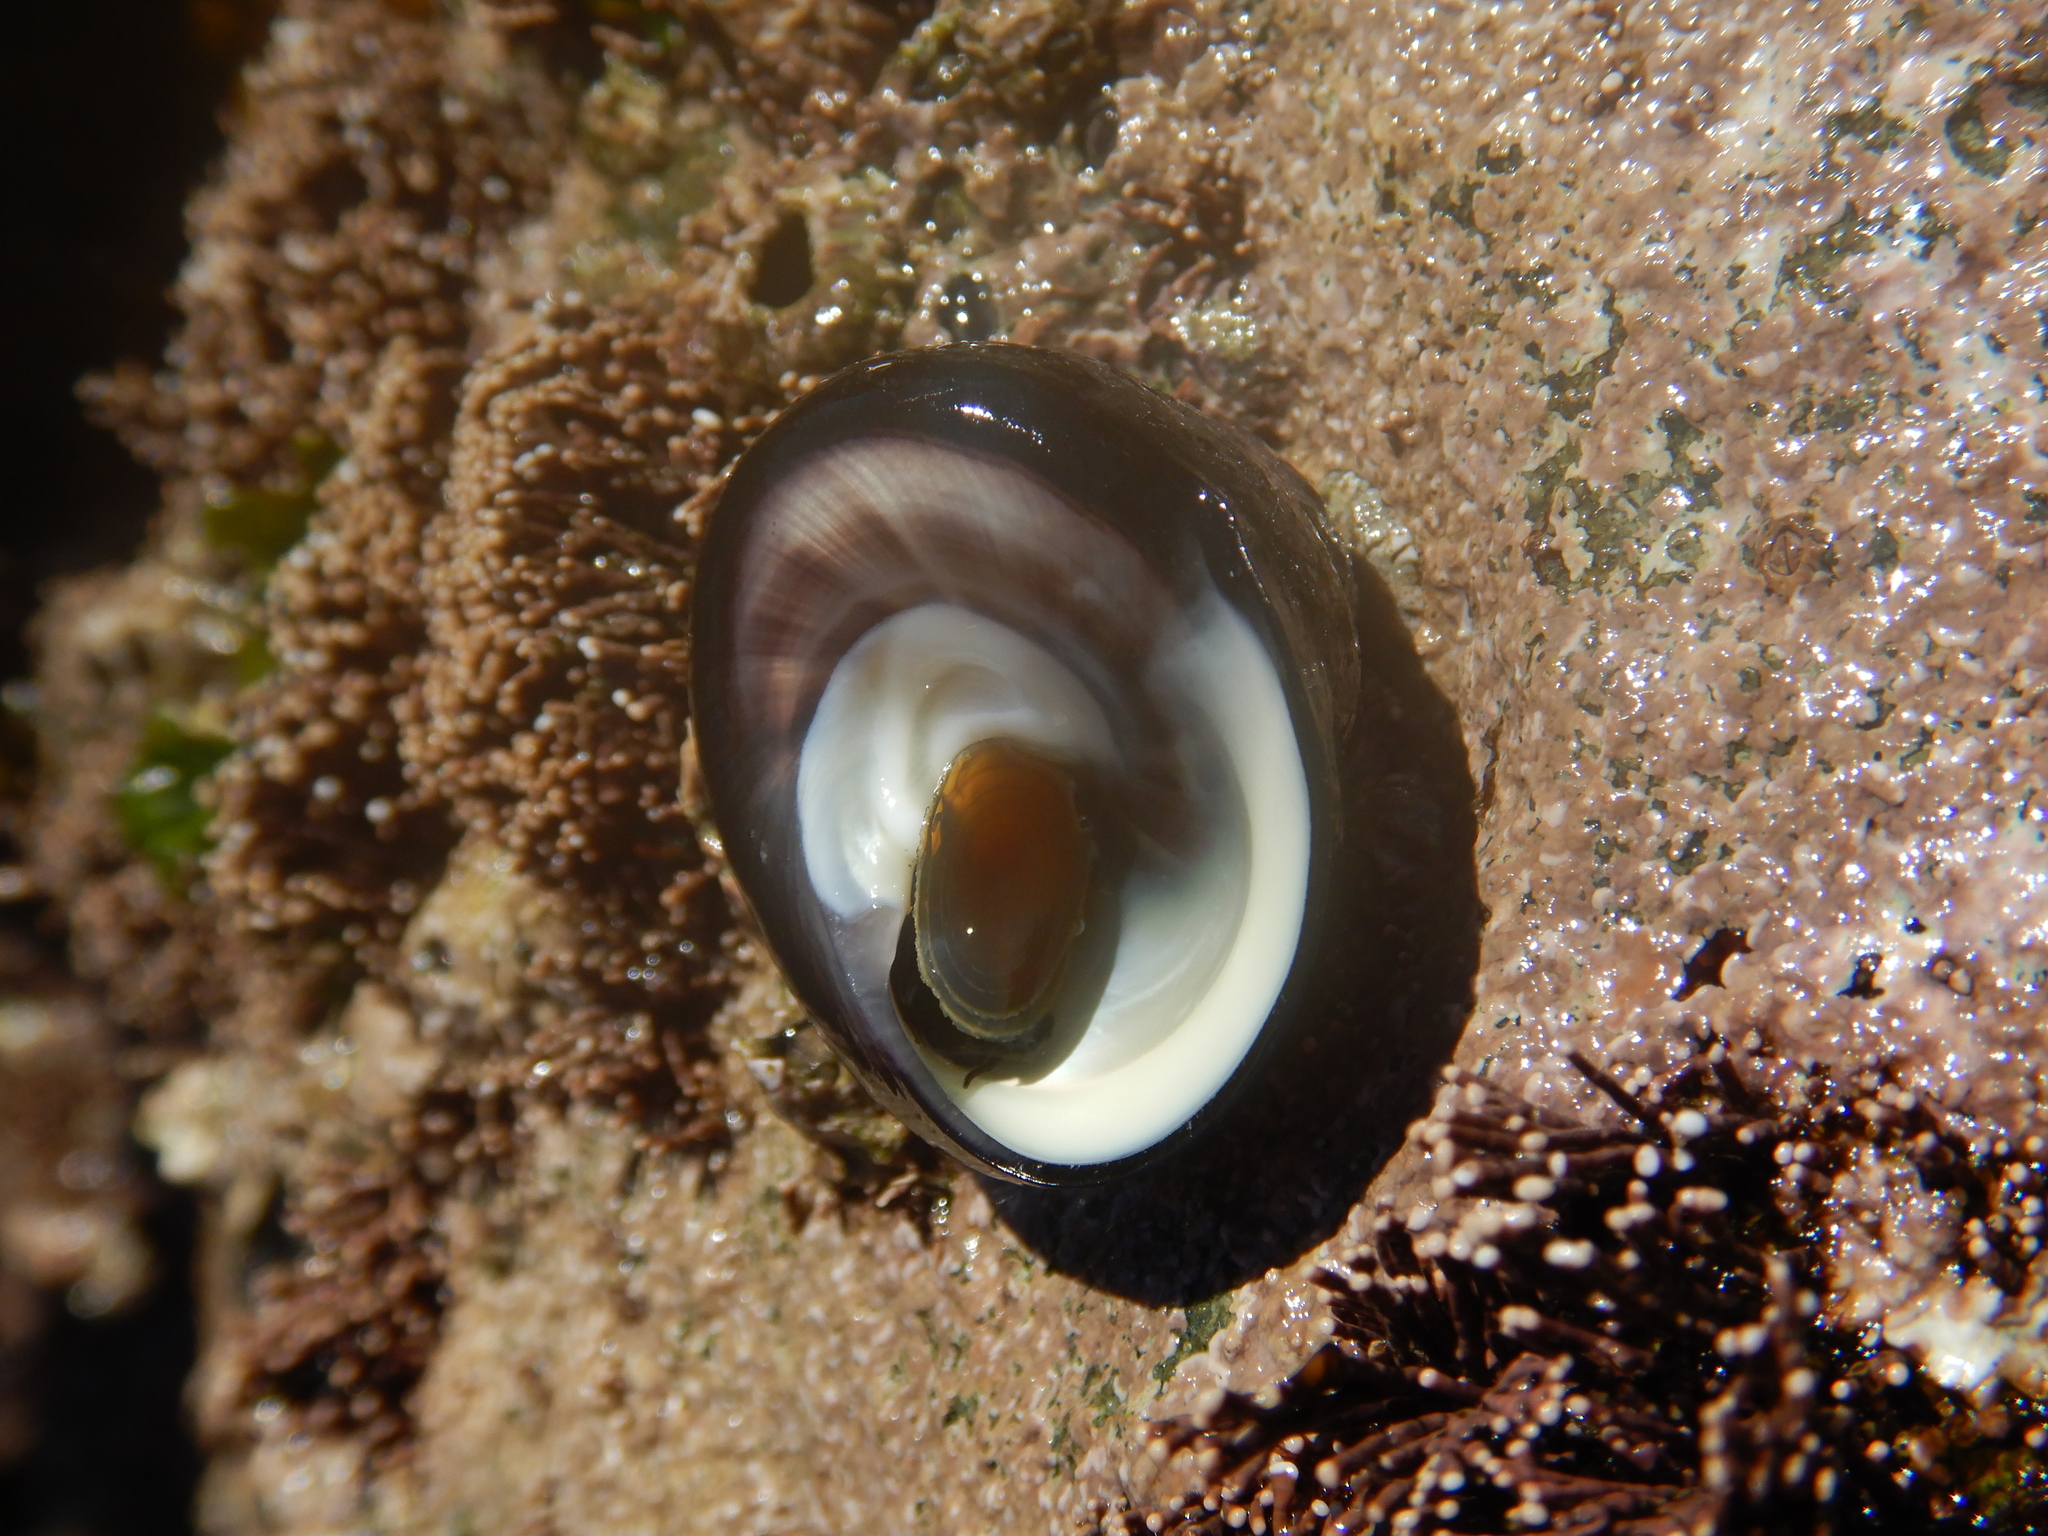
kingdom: Animalia
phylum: Mollusca
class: Gastropoda
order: Trochida
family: Tegulidae
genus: Tegula
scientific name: Tegula atra
